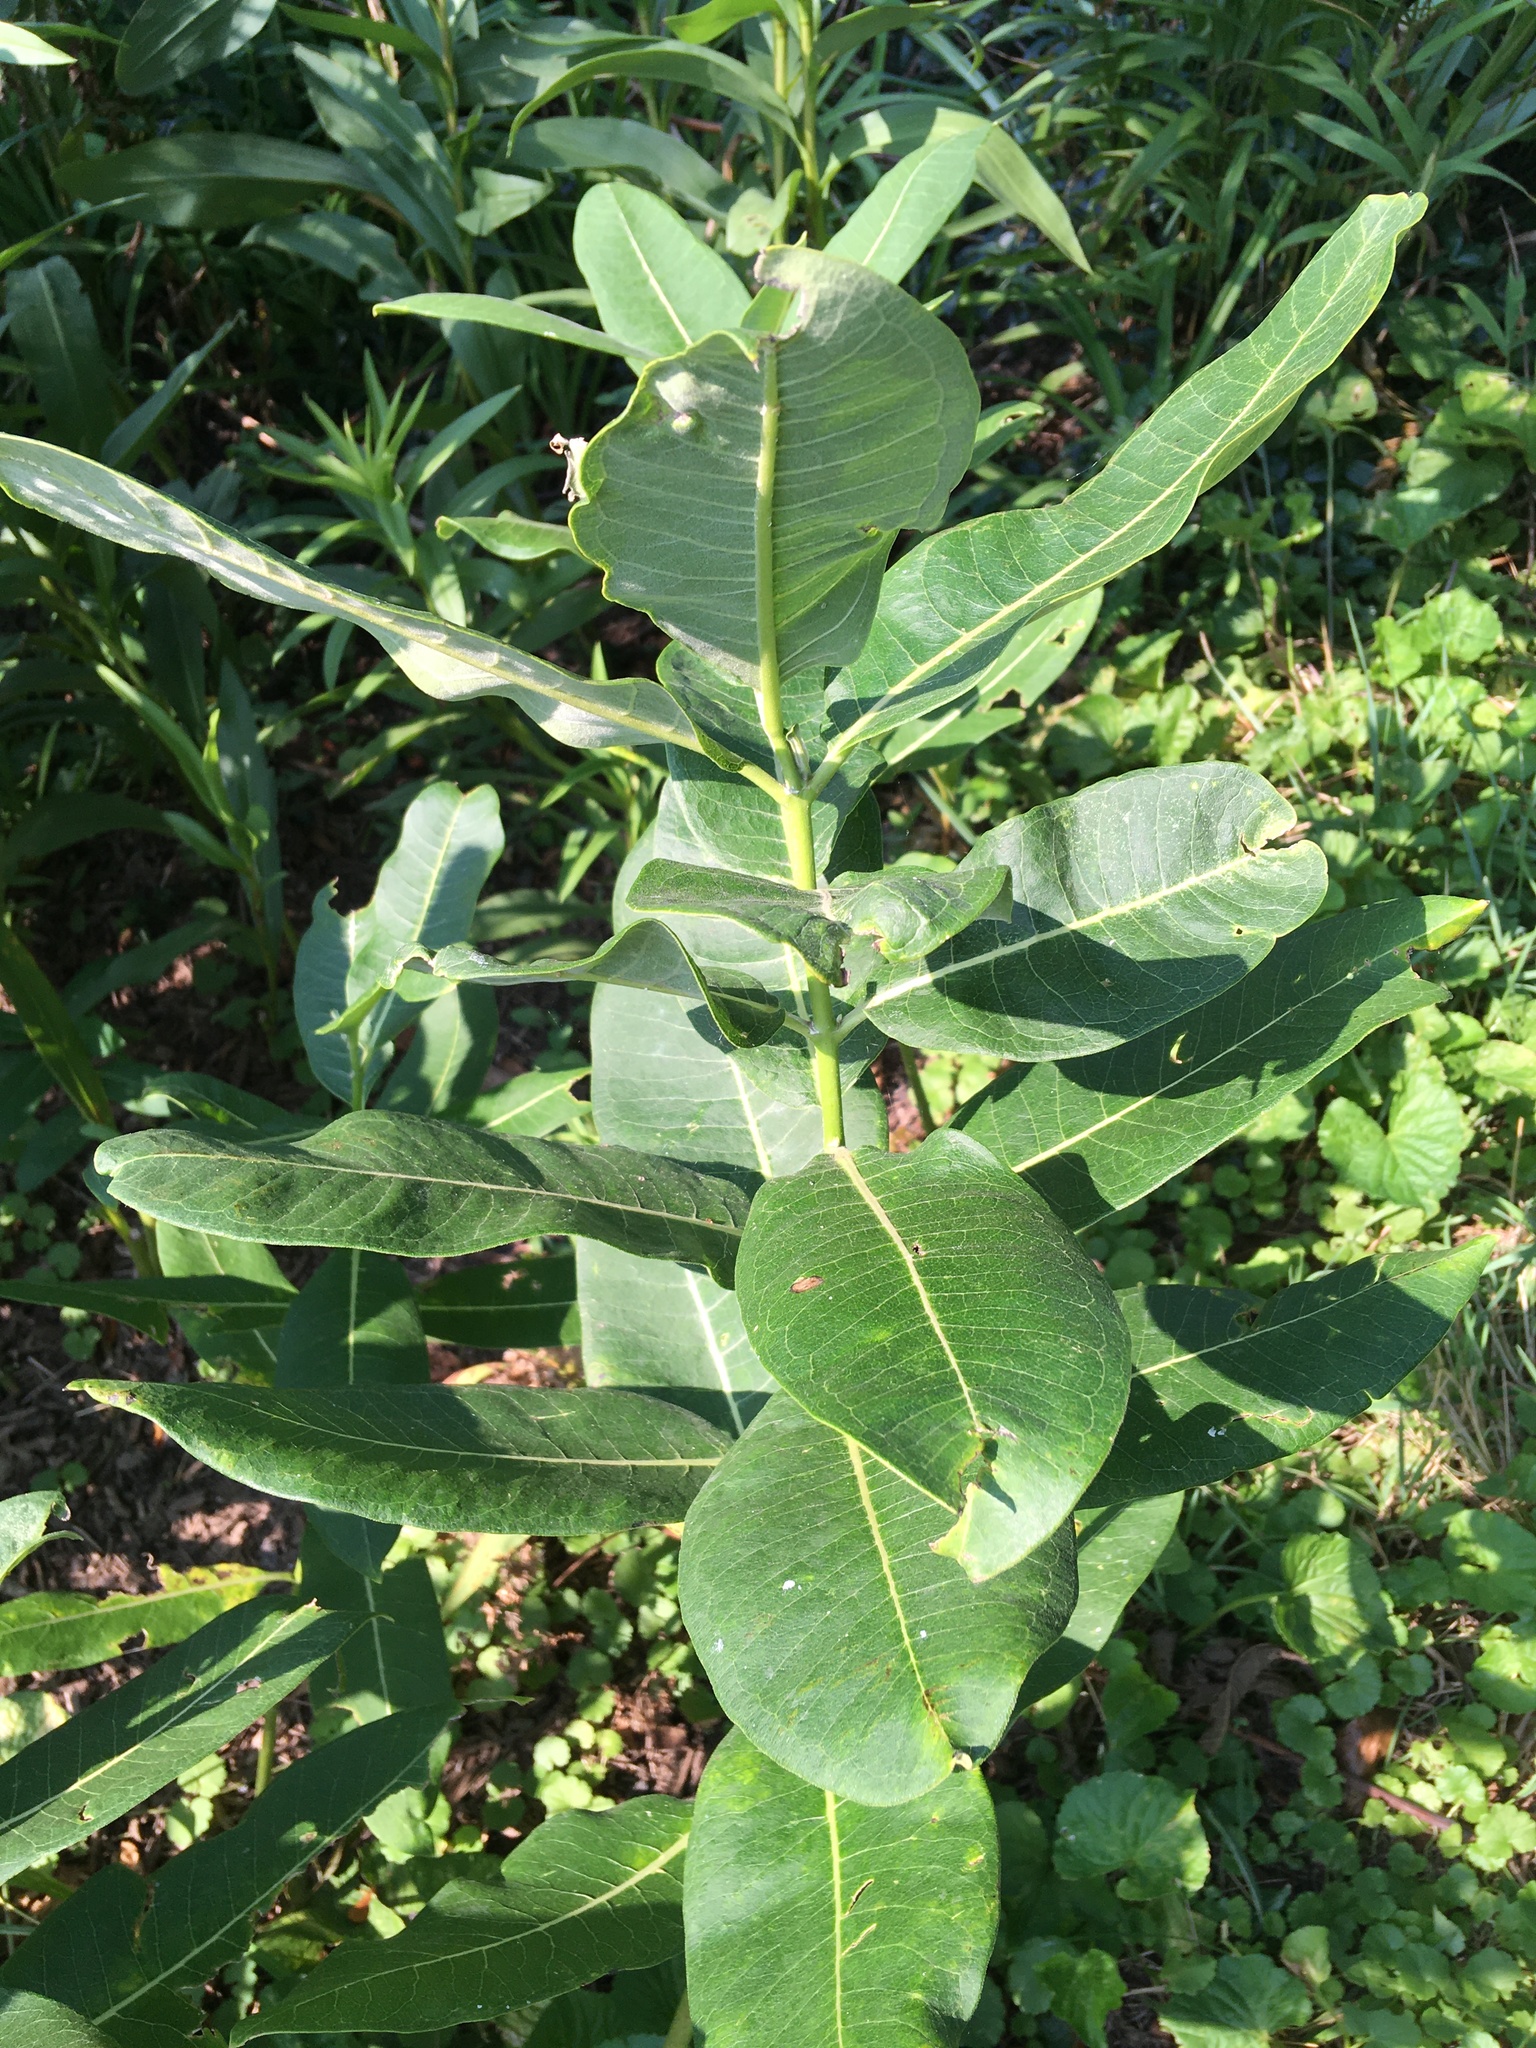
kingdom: Plantae
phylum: Tracheophyta
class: Magnoliopsida
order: Gentianales
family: Apocynaceae
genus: Asclepias
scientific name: Asclepias syriaca
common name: Common milkweed
